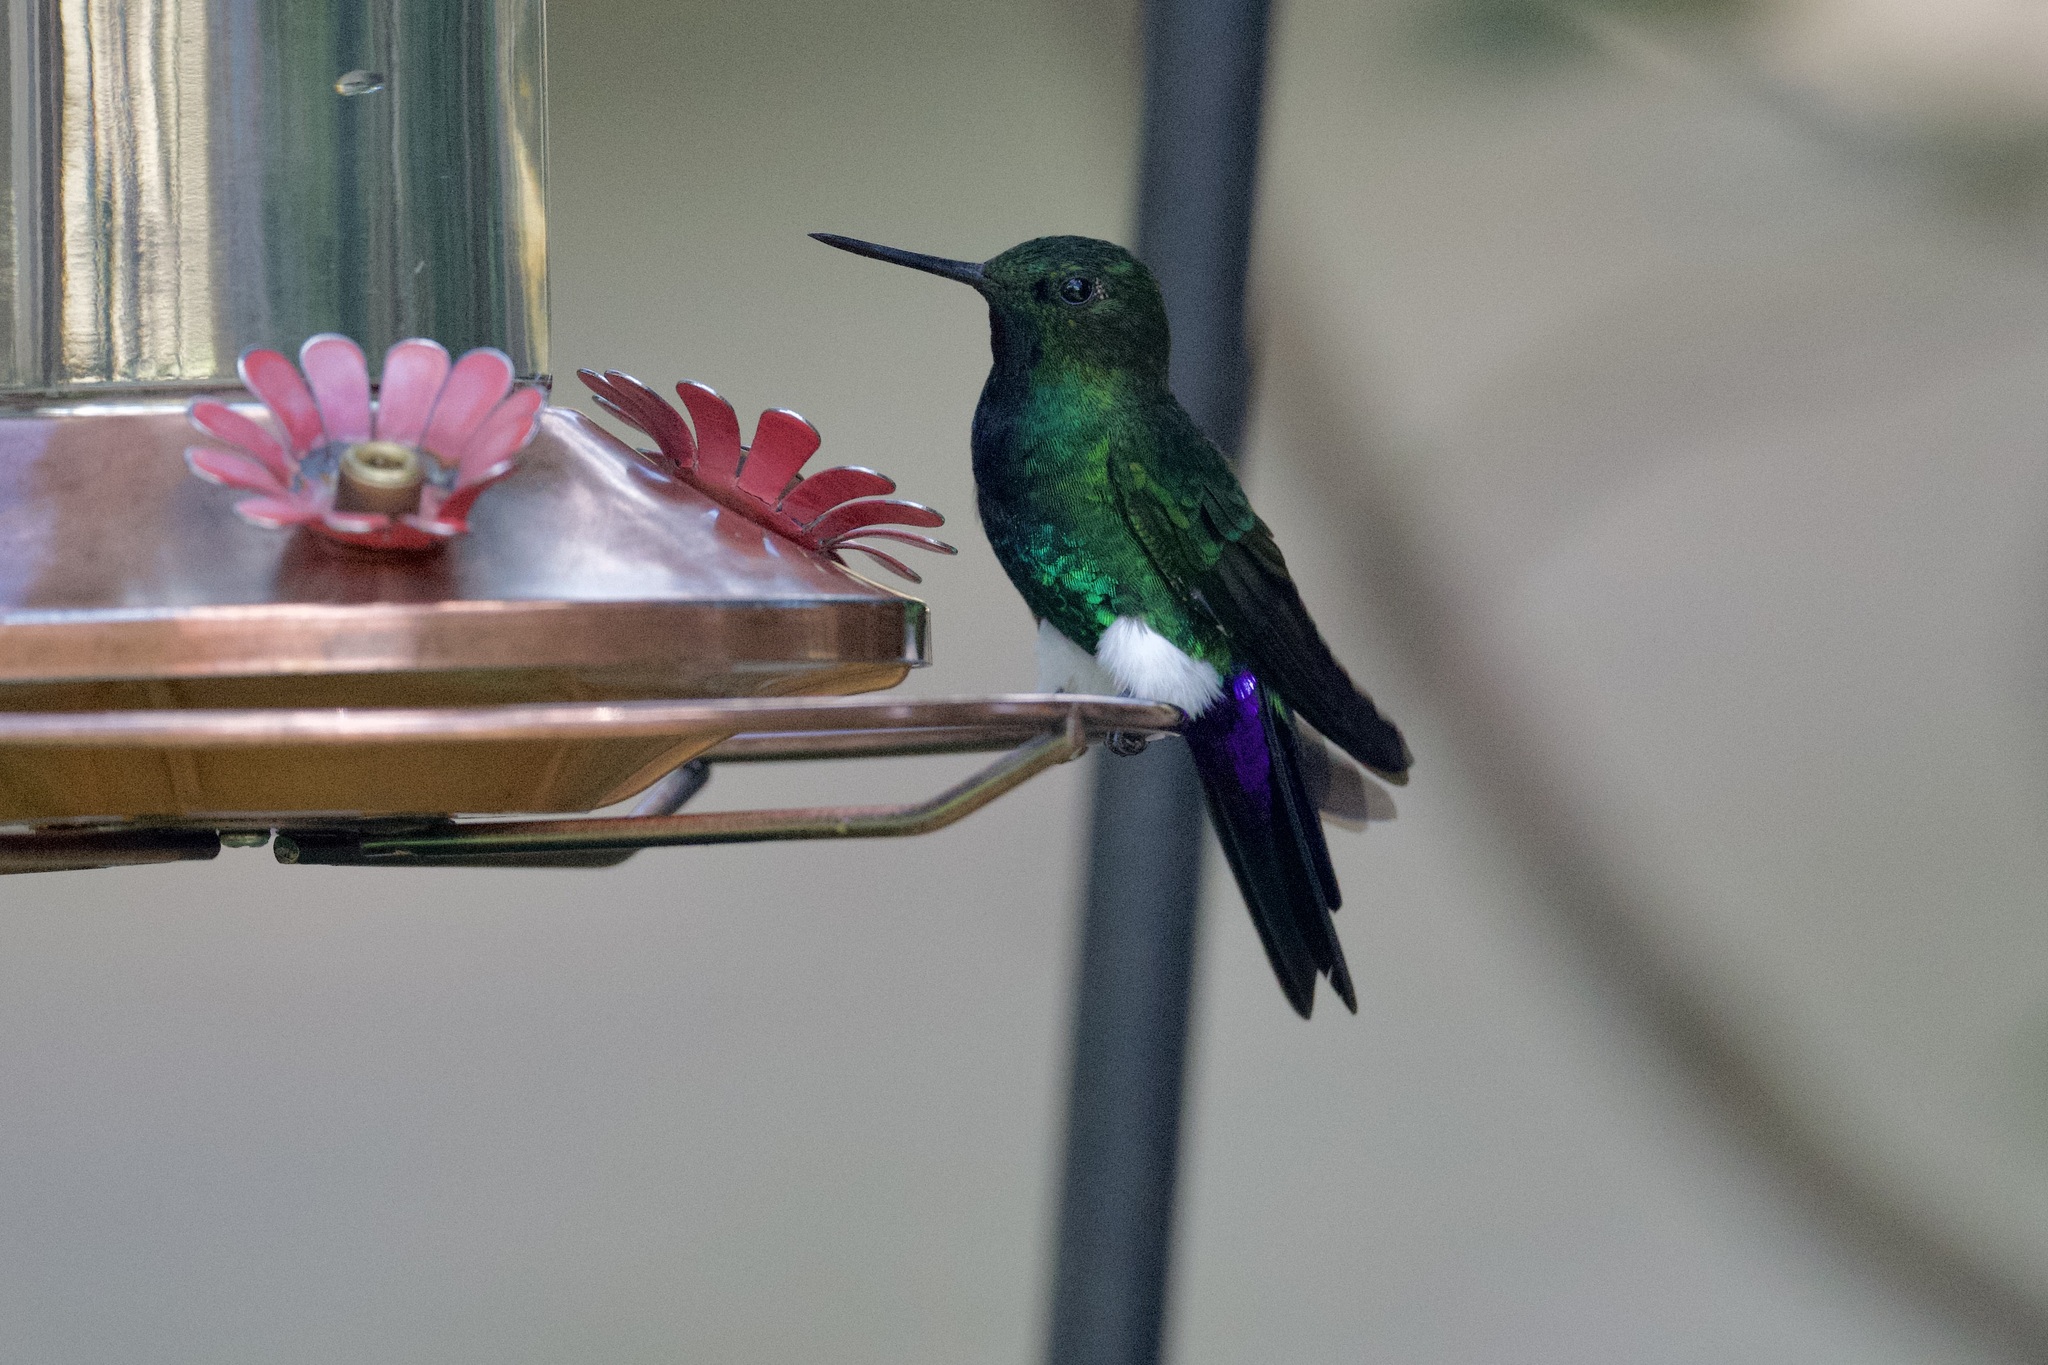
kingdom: Animalia
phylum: Chordata
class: Aves
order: Apodiformes
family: Trochilidae
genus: Eriocnemis
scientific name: Eriocnemis vestita
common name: Glowing puffleg
